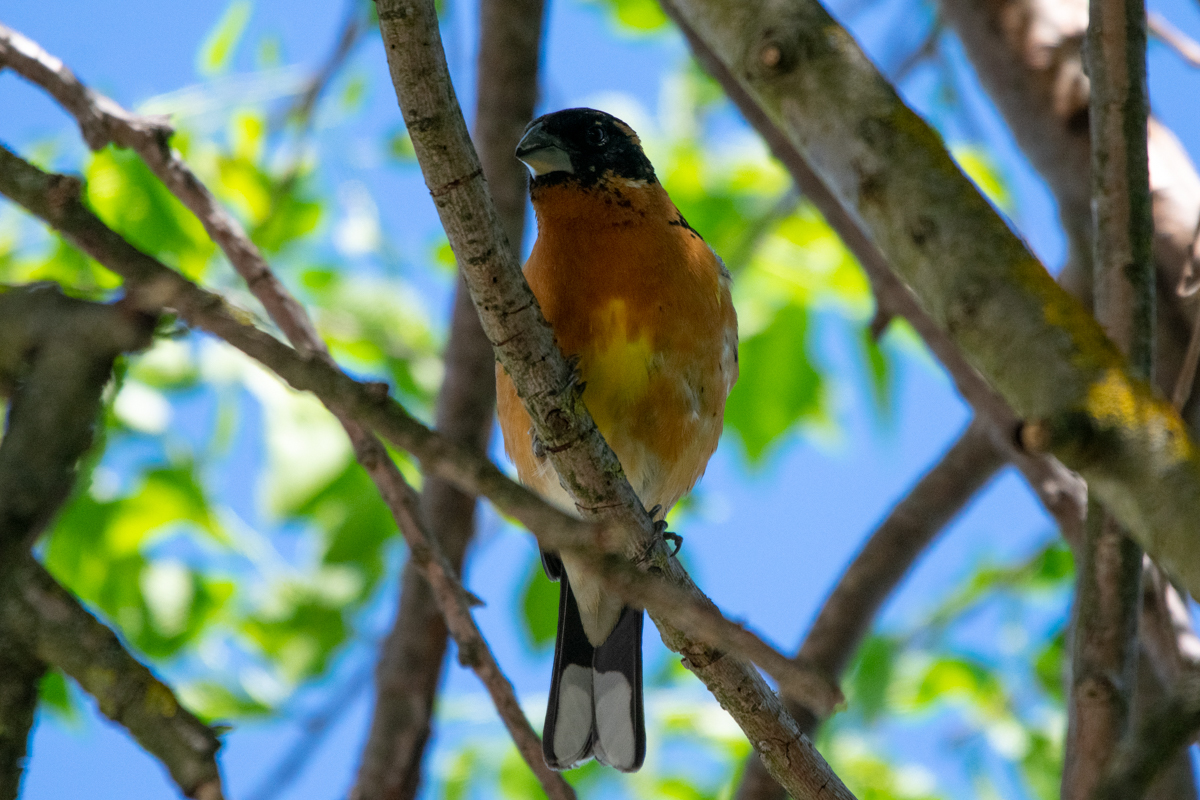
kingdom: Animalia
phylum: Chordata
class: Aves
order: Passeriformes
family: Cardinalidae
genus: Pheucticus
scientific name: Pheucticus melanocephalus
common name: Black-headed grosbeak
